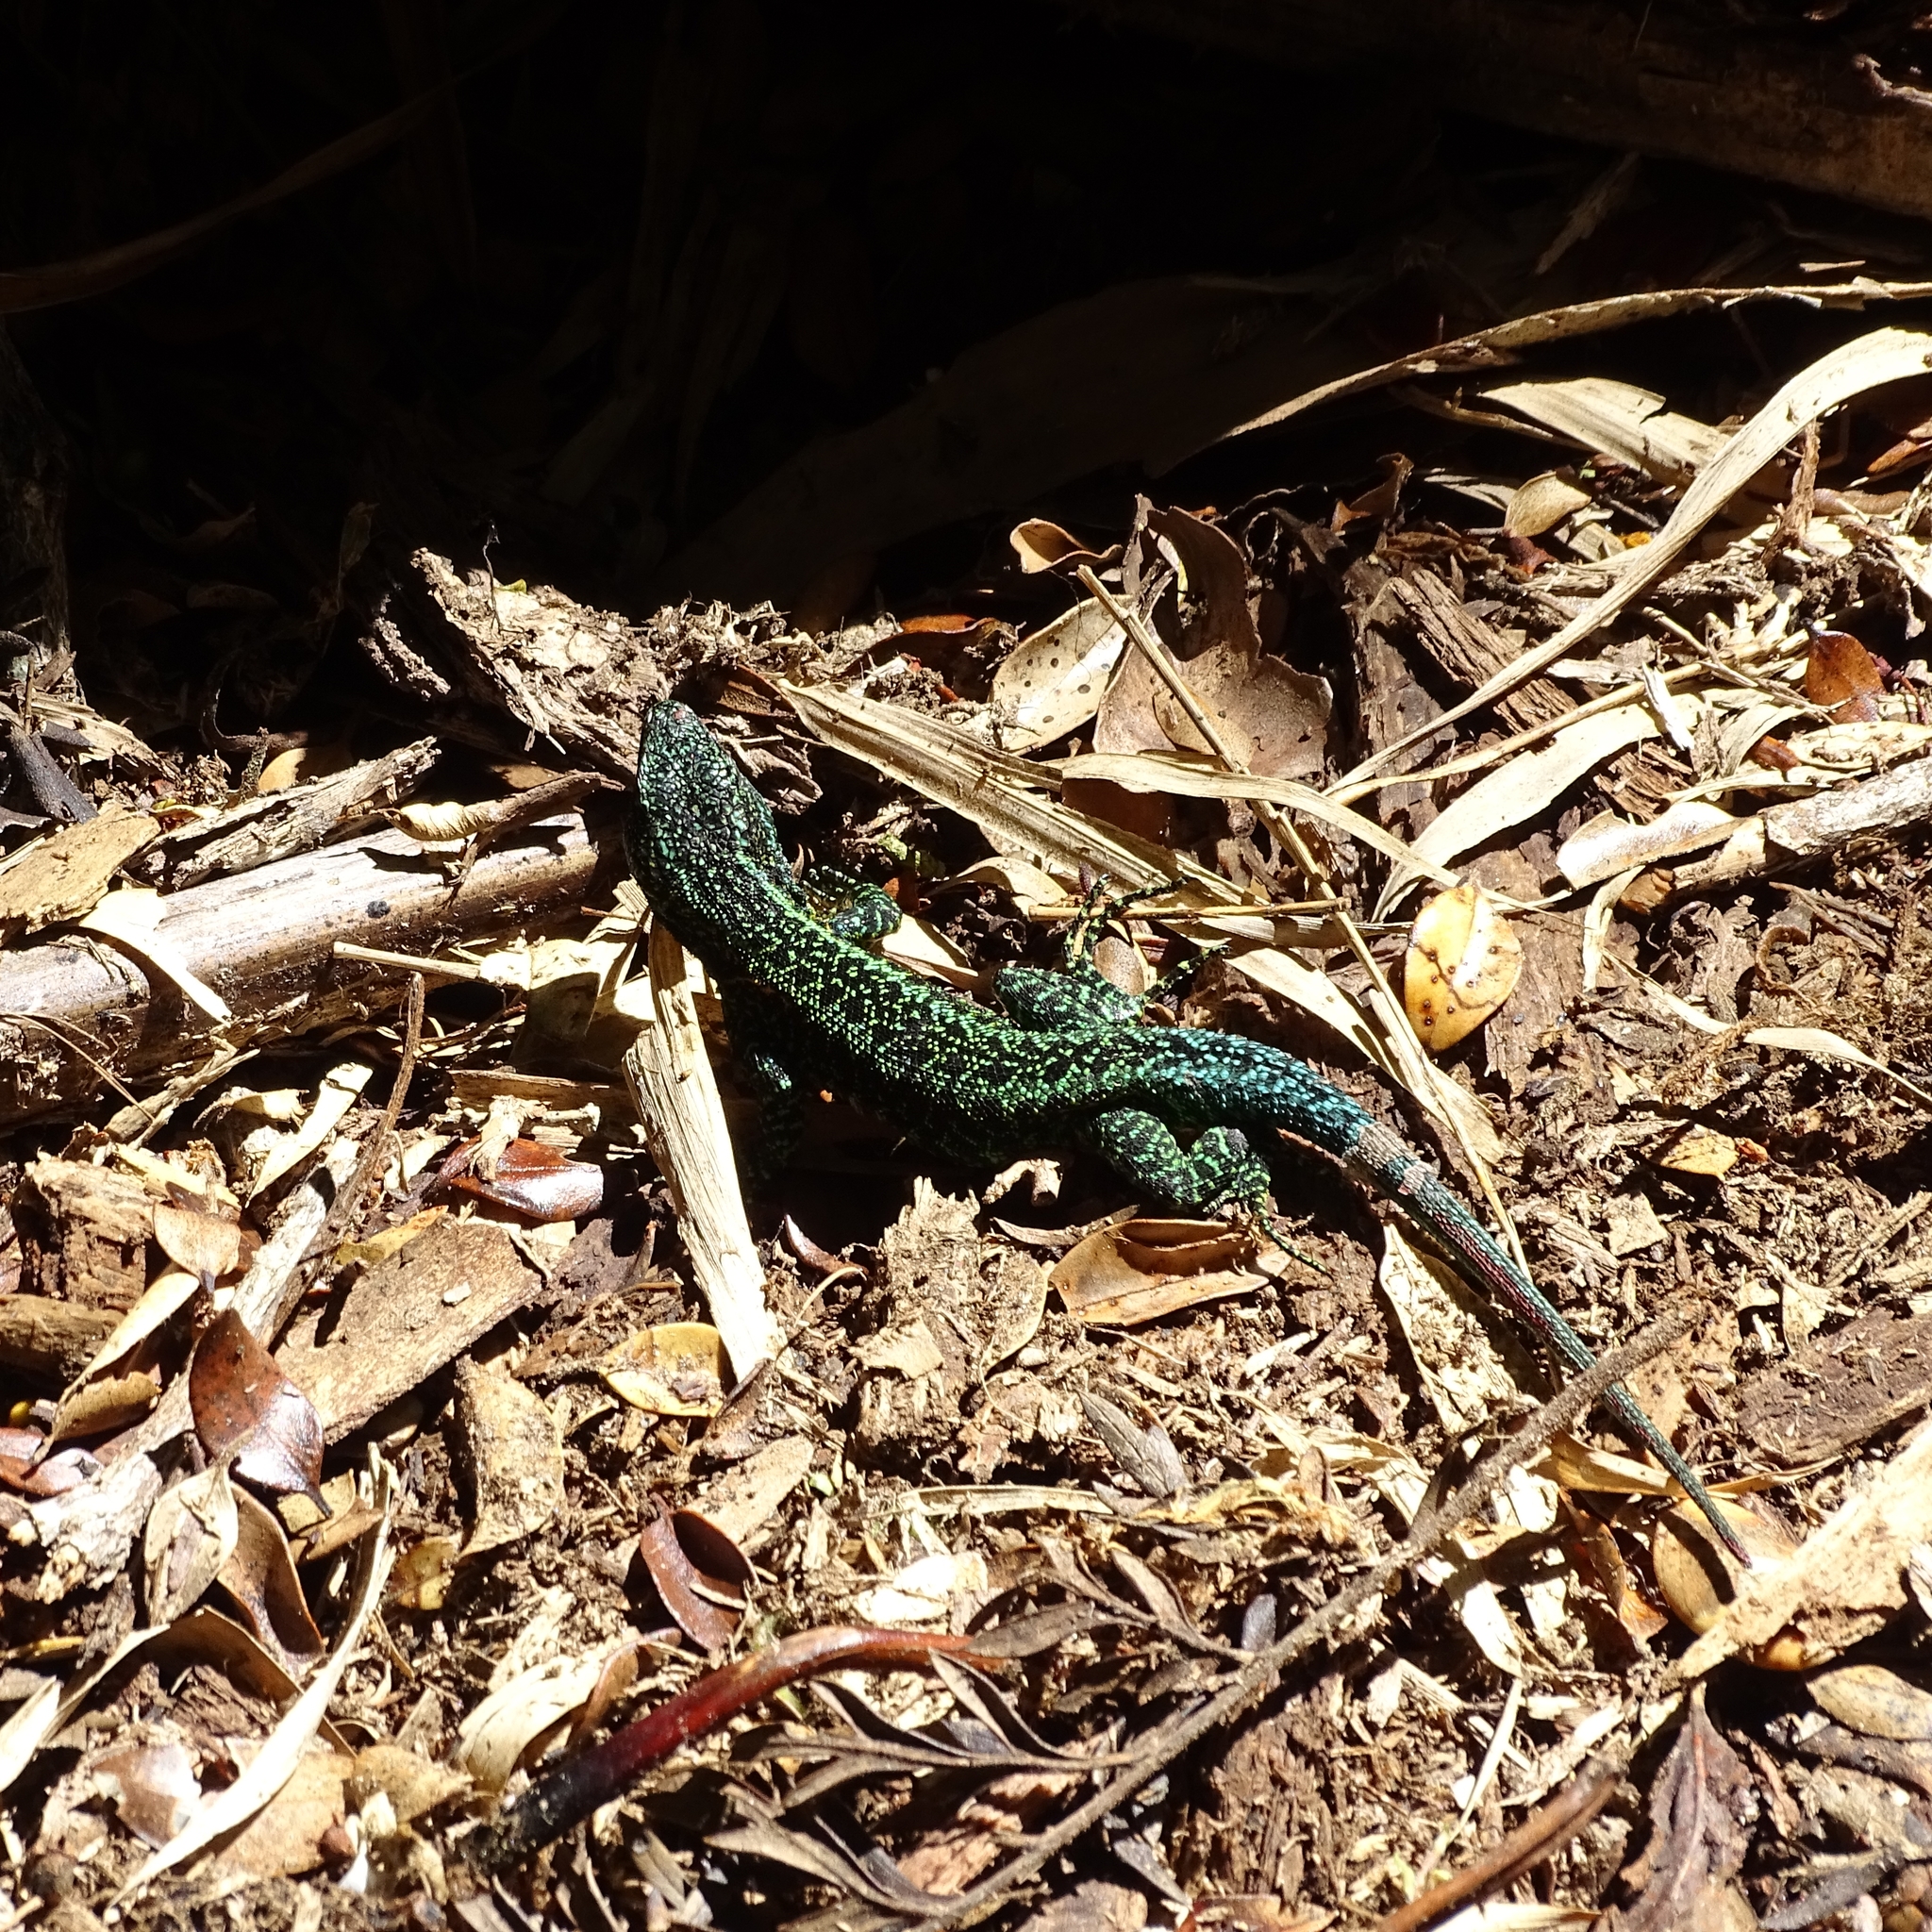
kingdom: Animalia
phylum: Chordata
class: Squamata
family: Liolaemidae
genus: Liolaemus
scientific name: Liolaemus pictus
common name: Painted tree iguana
